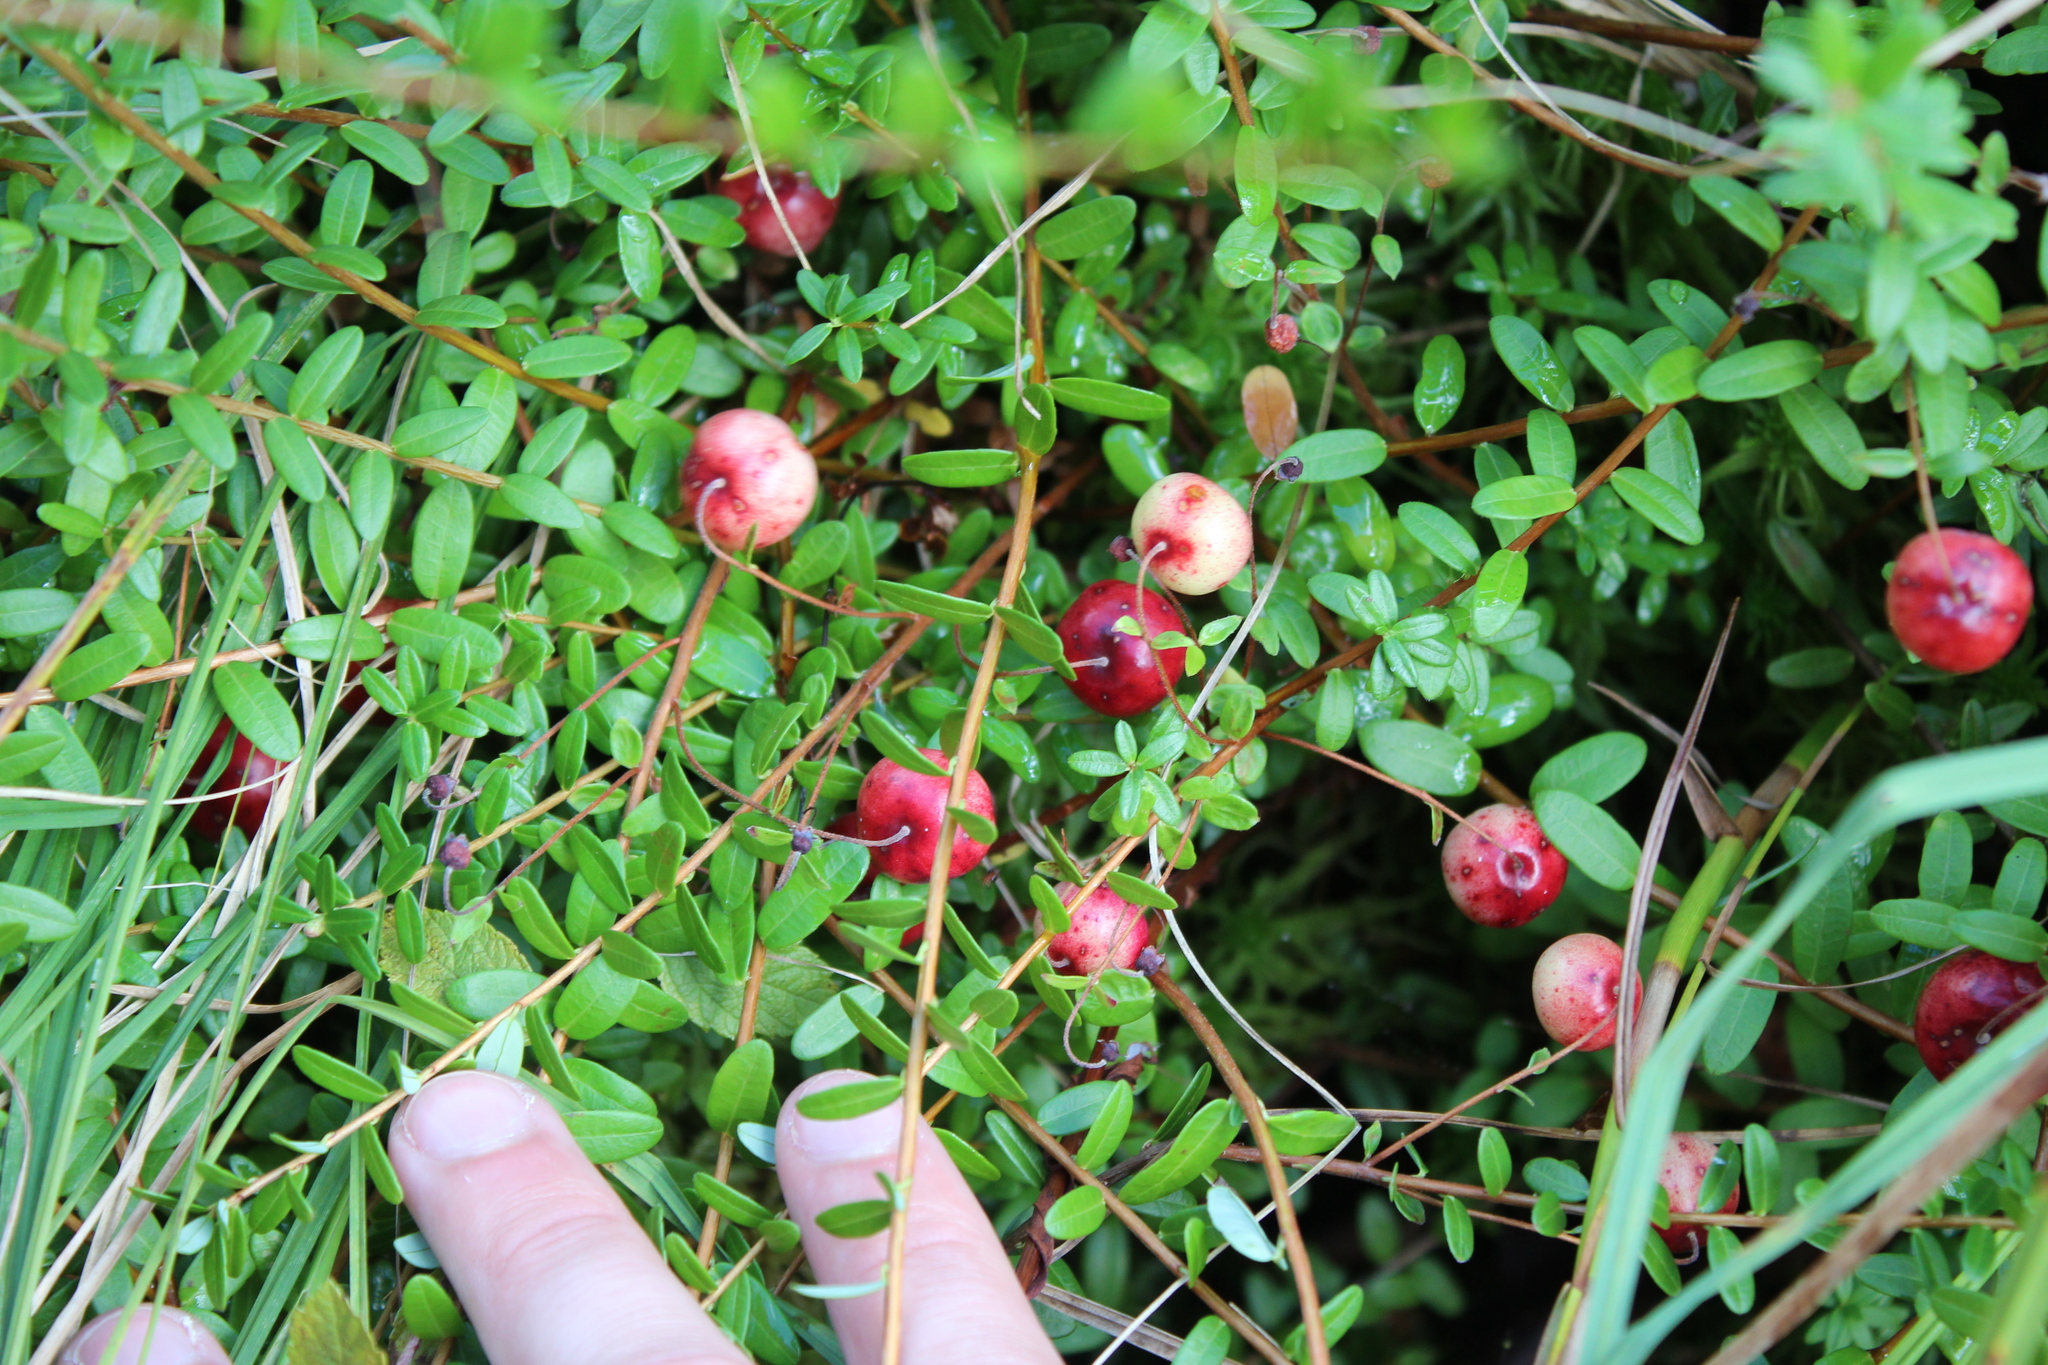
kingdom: Plantae
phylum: Tracheophyta
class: Magnoliopsida
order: Ericales
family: Ericaceae
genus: Vaccinium
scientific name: Vaccinium macrocarpon
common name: American cranberry
